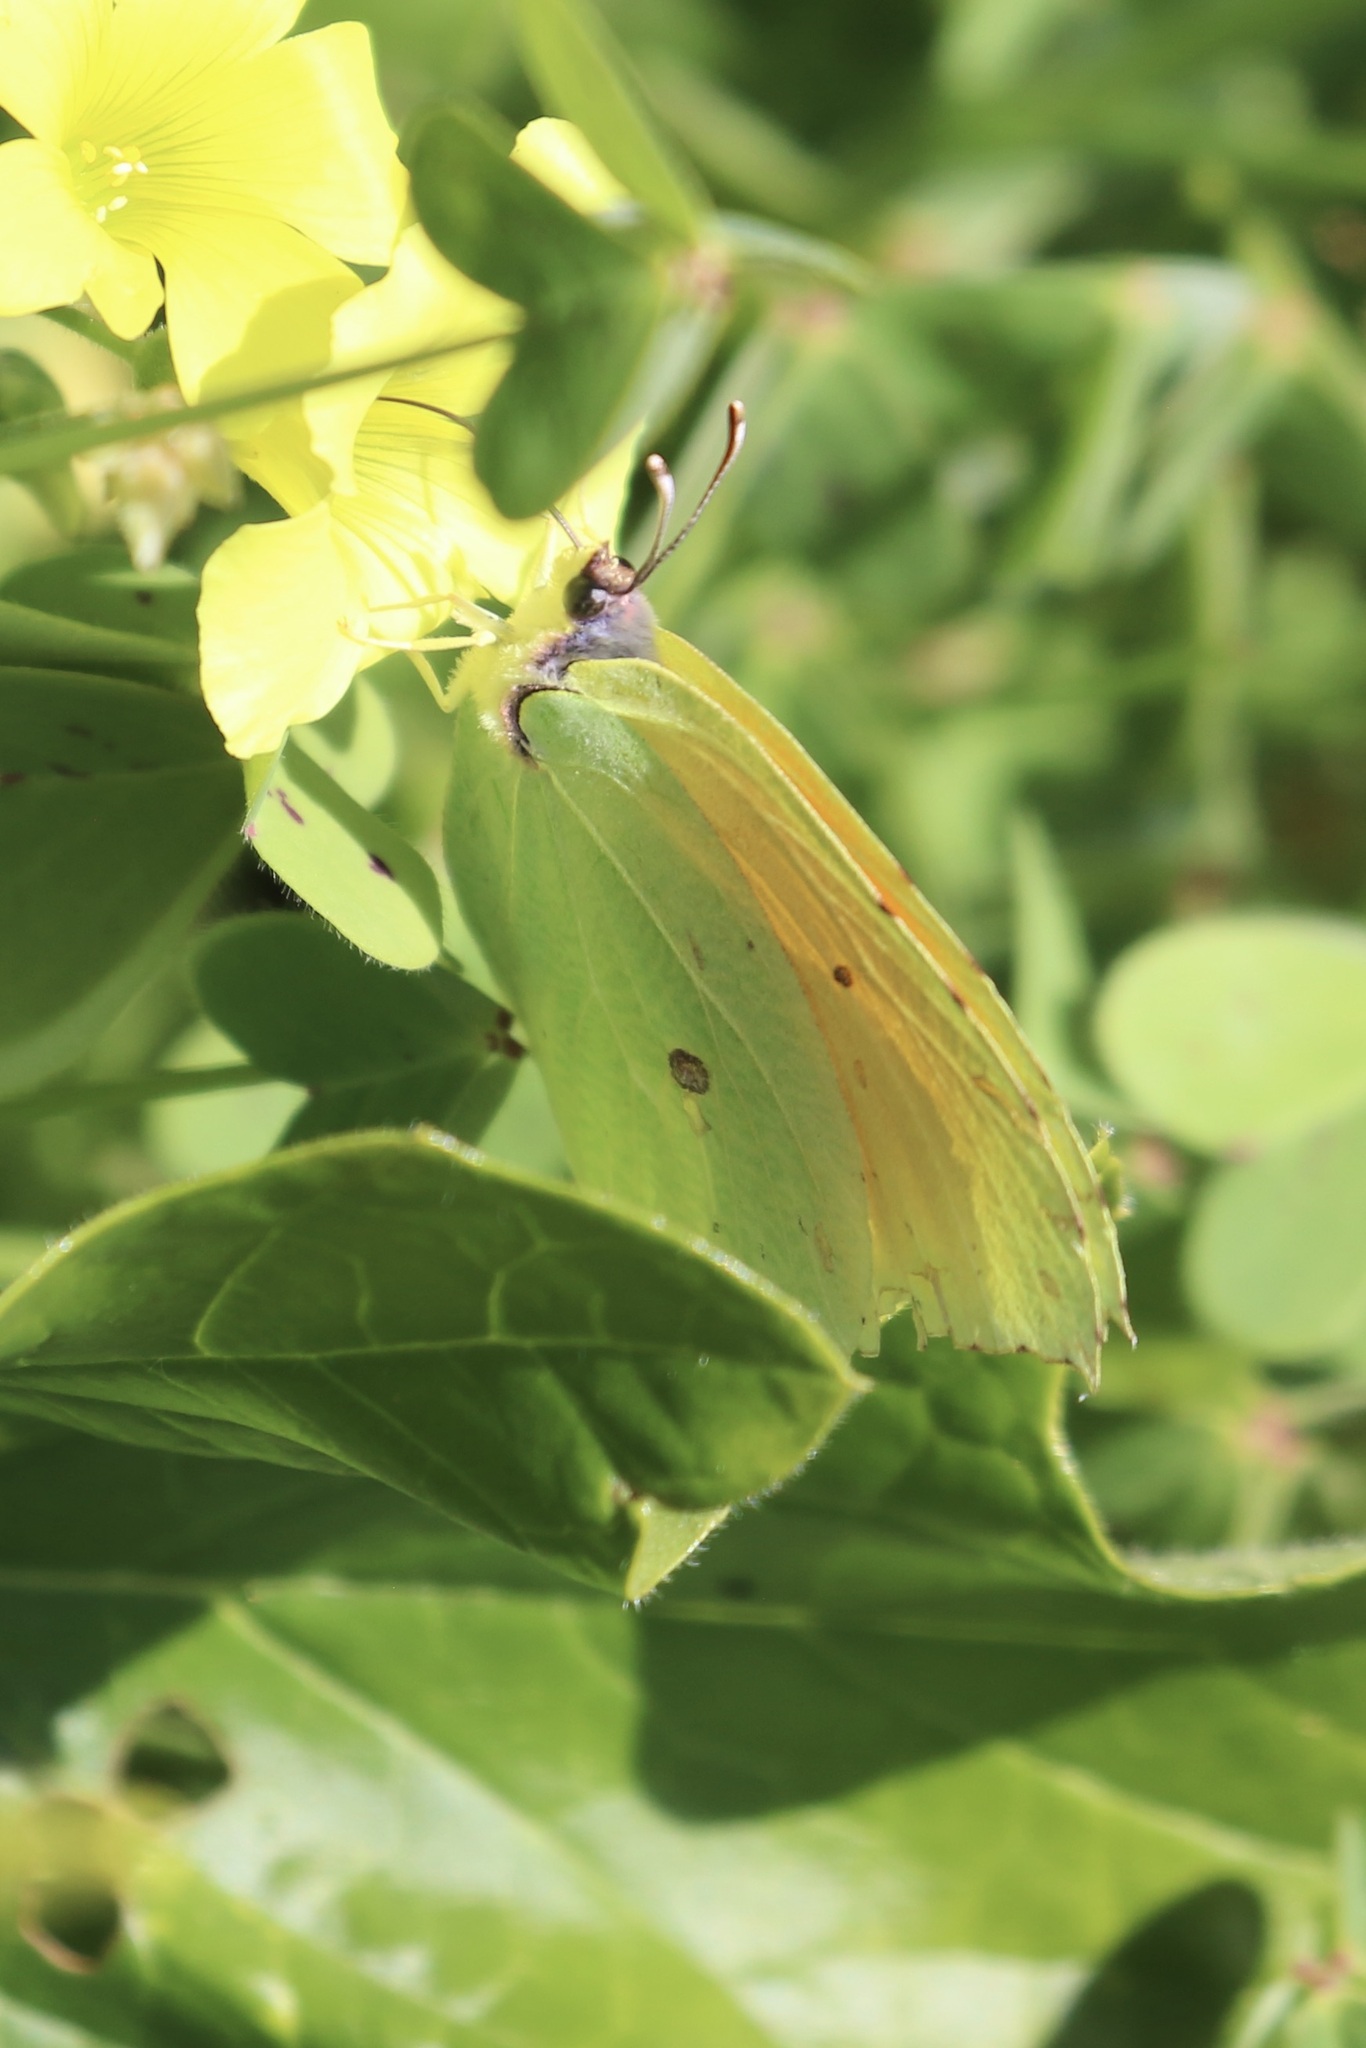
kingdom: Animalia
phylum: Arthropoda
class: Insecta
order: Lepidoptera
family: Pieridae
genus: Gonepteryx
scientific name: Gonepteryx cleopatra
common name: Cleopatra
